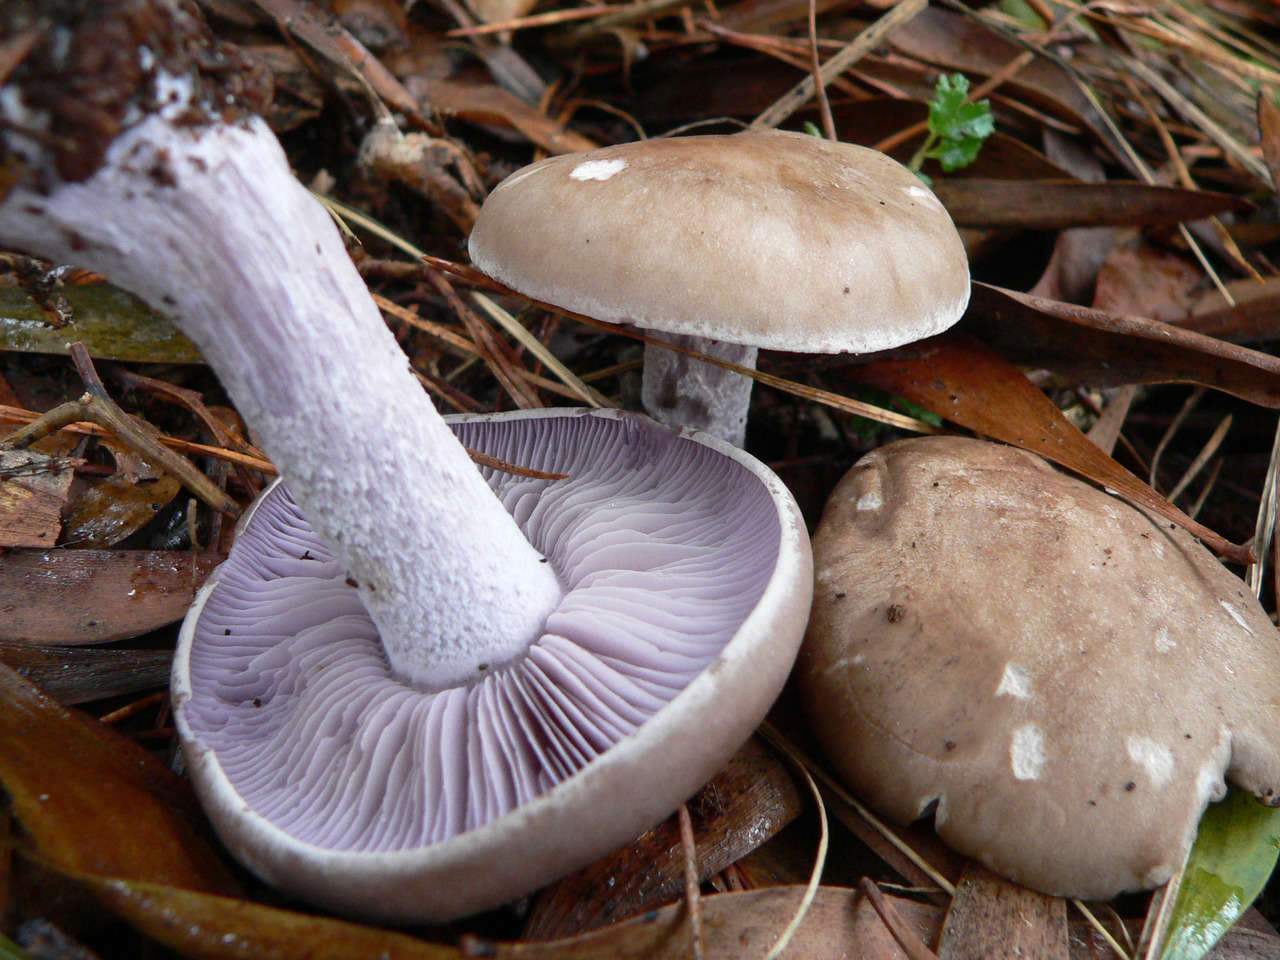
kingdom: Fungi
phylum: Basidiomycota
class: Agaricomycetes
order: Agaricales
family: Tricholomataceae
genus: Collybia
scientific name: Collybia
